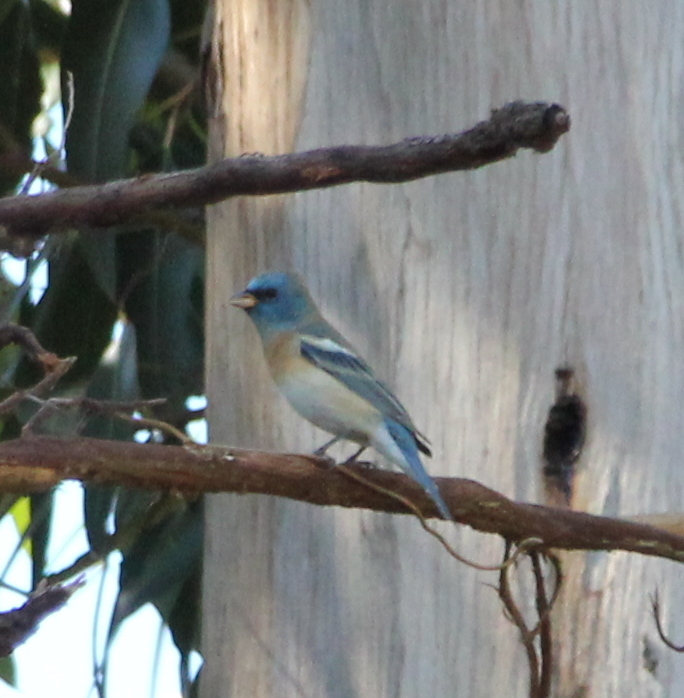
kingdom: Animalia
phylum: Chordata
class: Aves
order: Passeriformes
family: Cardinalidae
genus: Passerina
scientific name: Passerina amoena
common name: Lazuli bunting
